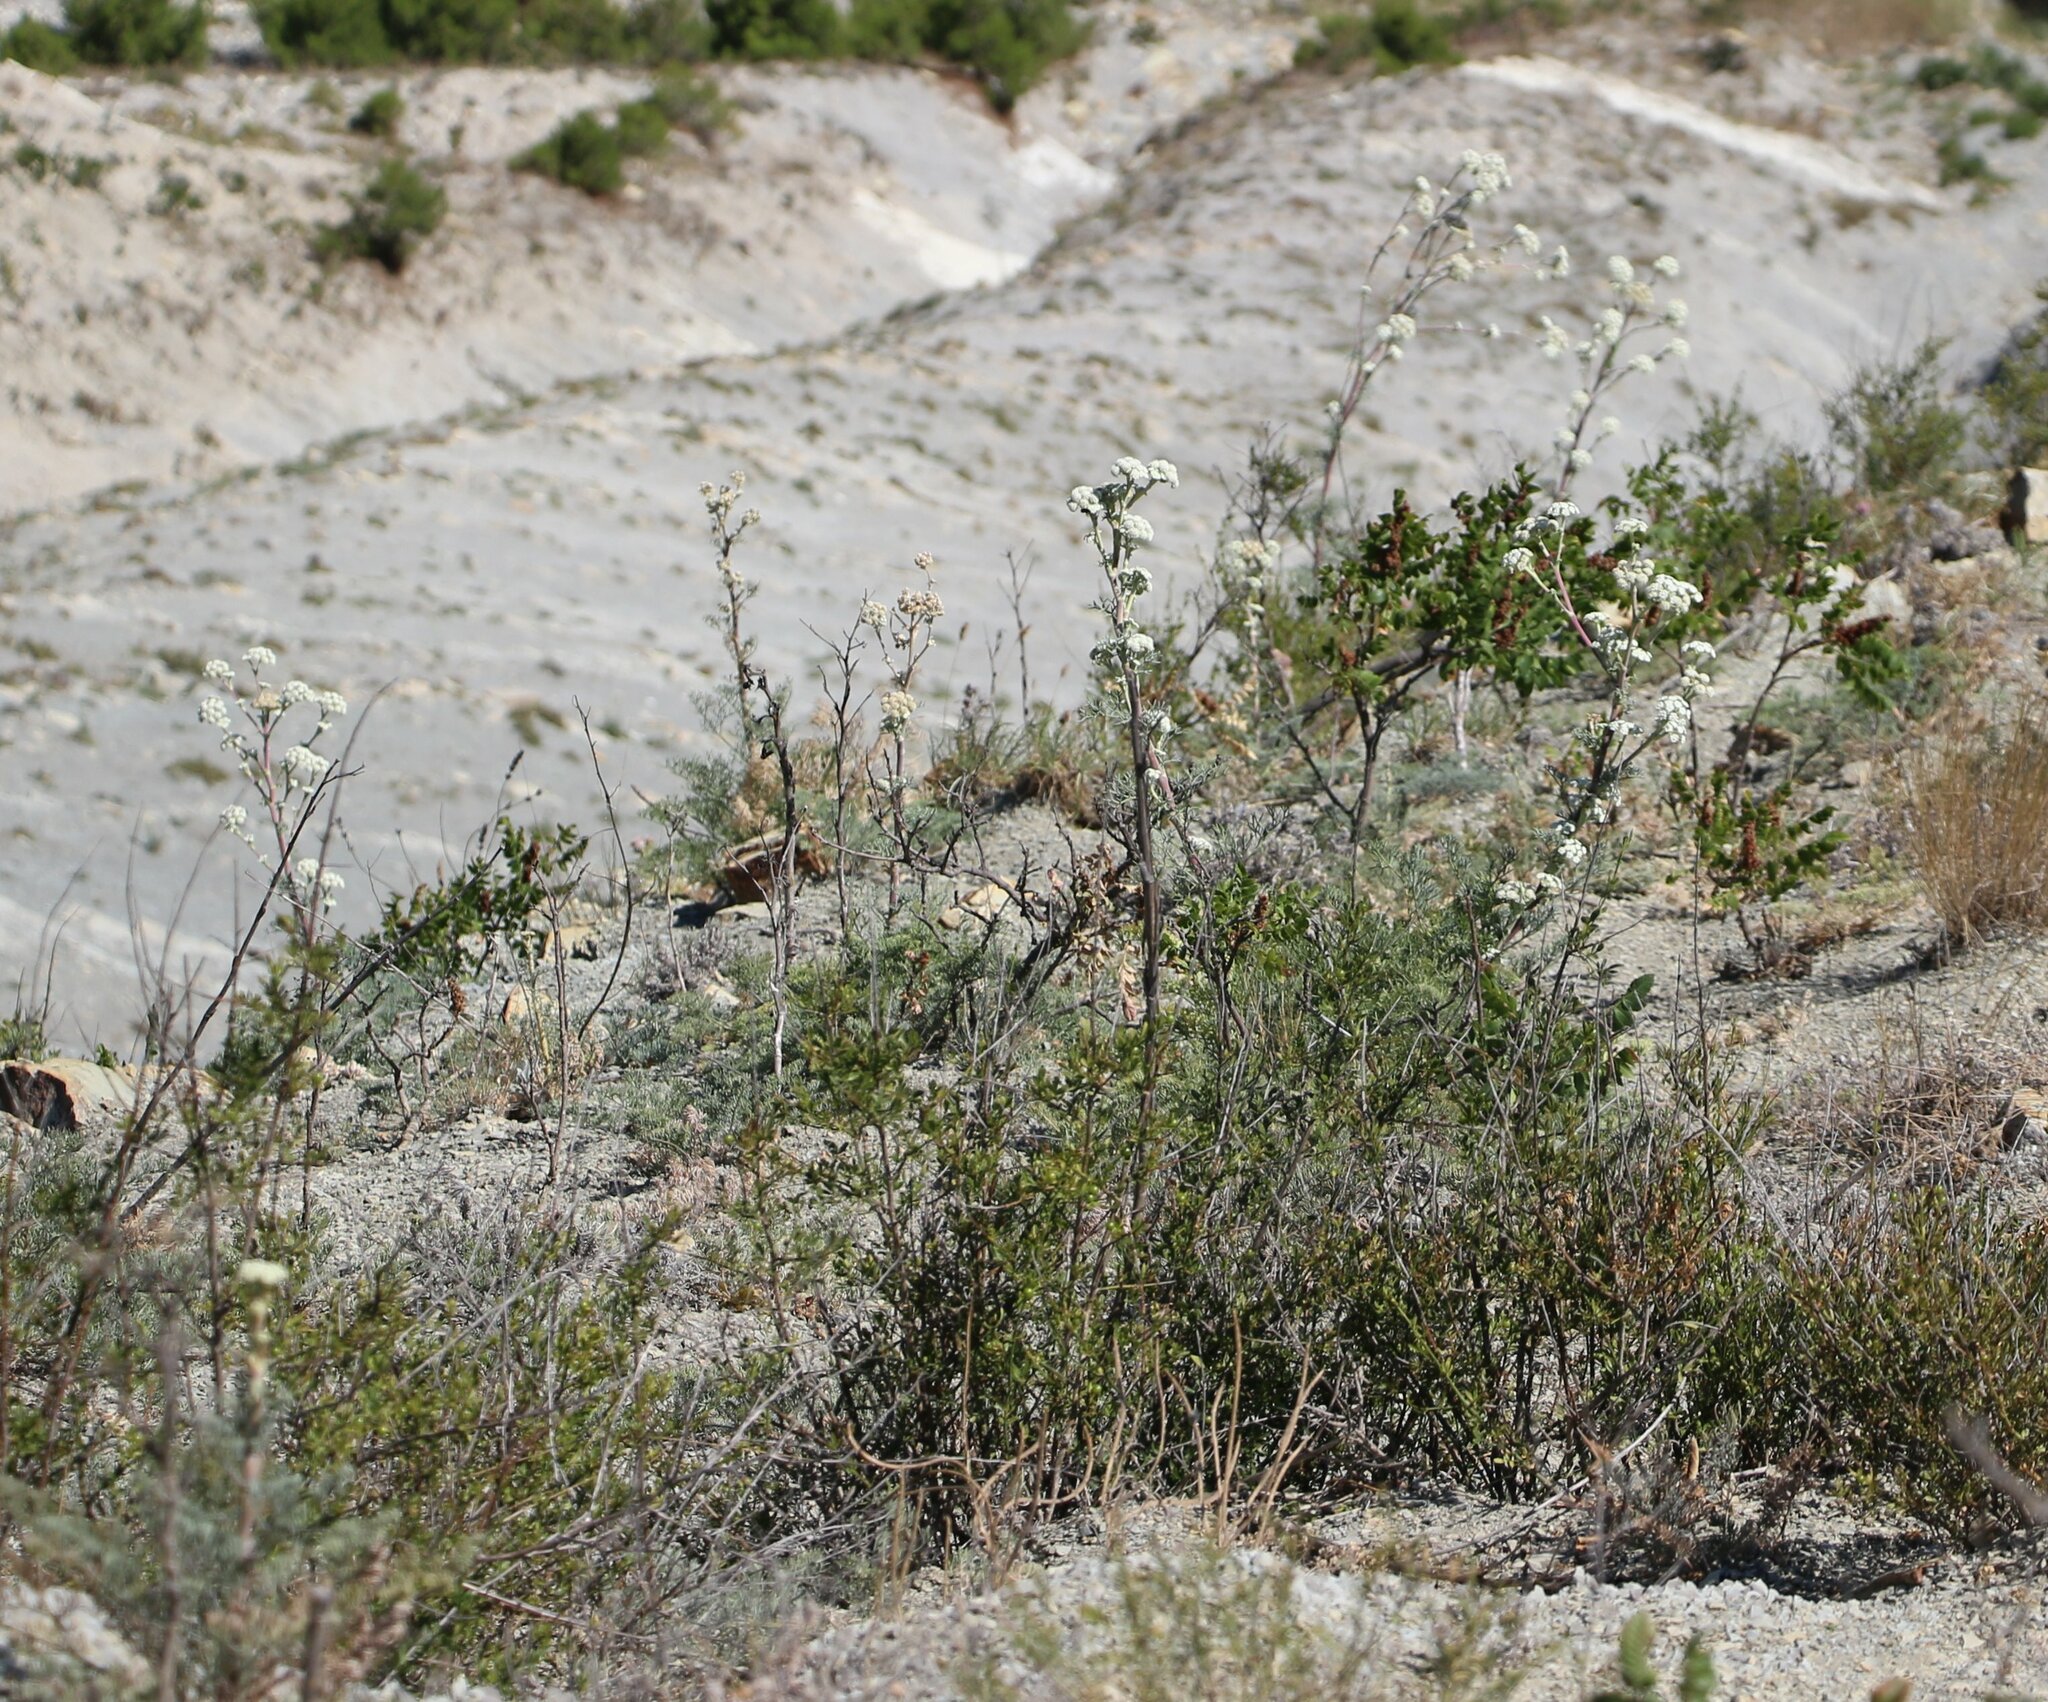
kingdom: Plantae
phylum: Tracheophyta
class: Magnoliopsida
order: Apiales
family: Apiaceae
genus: Seseli
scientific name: Seseli ponticum
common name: Pontic seseli
